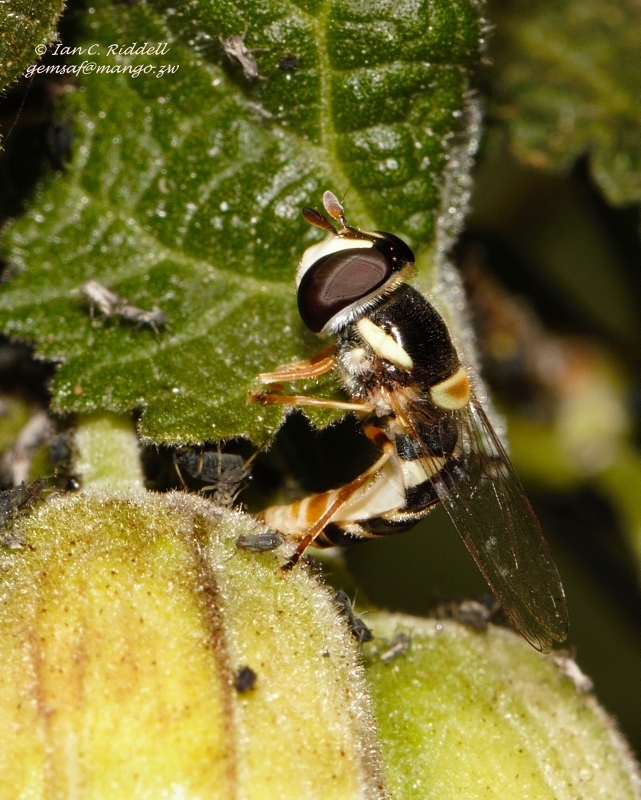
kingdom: Animalia
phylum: Arthropoda
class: Insecta
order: Diptera
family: Syrphidae
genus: Ischiodon
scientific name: Ischiodon aegyptius
